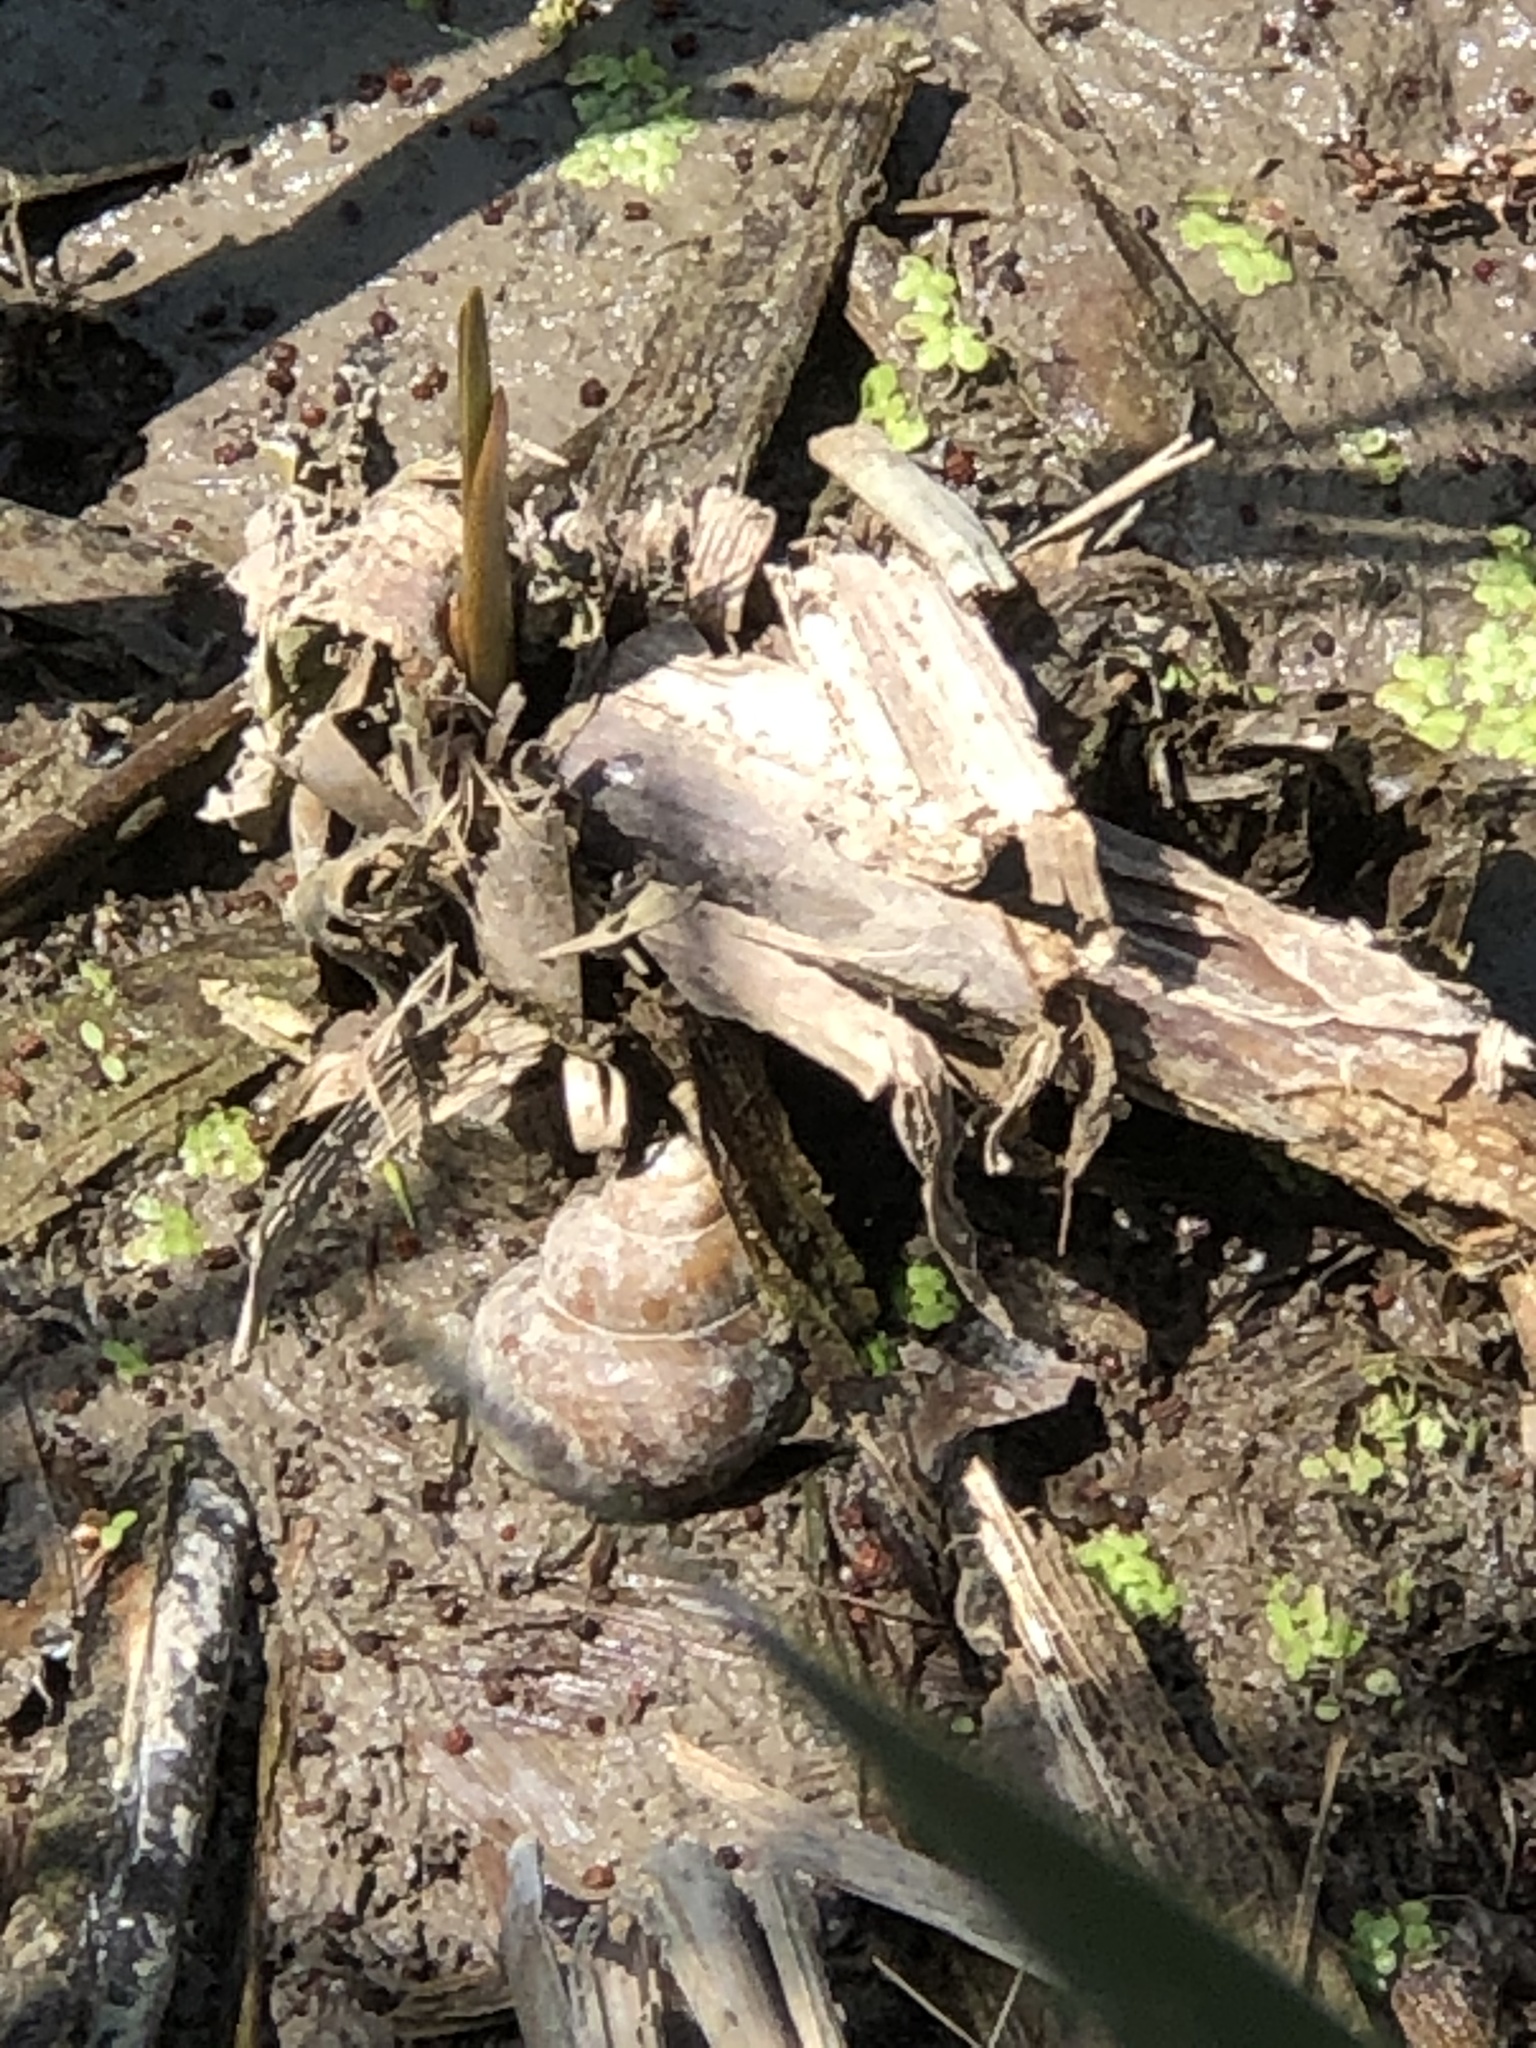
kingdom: Animalia
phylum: Mollusca
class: Gastropoda
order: Architaenioglossa
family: Viviparidae
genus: Cipangopaludina
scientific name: Cipangopaludina chinensis
